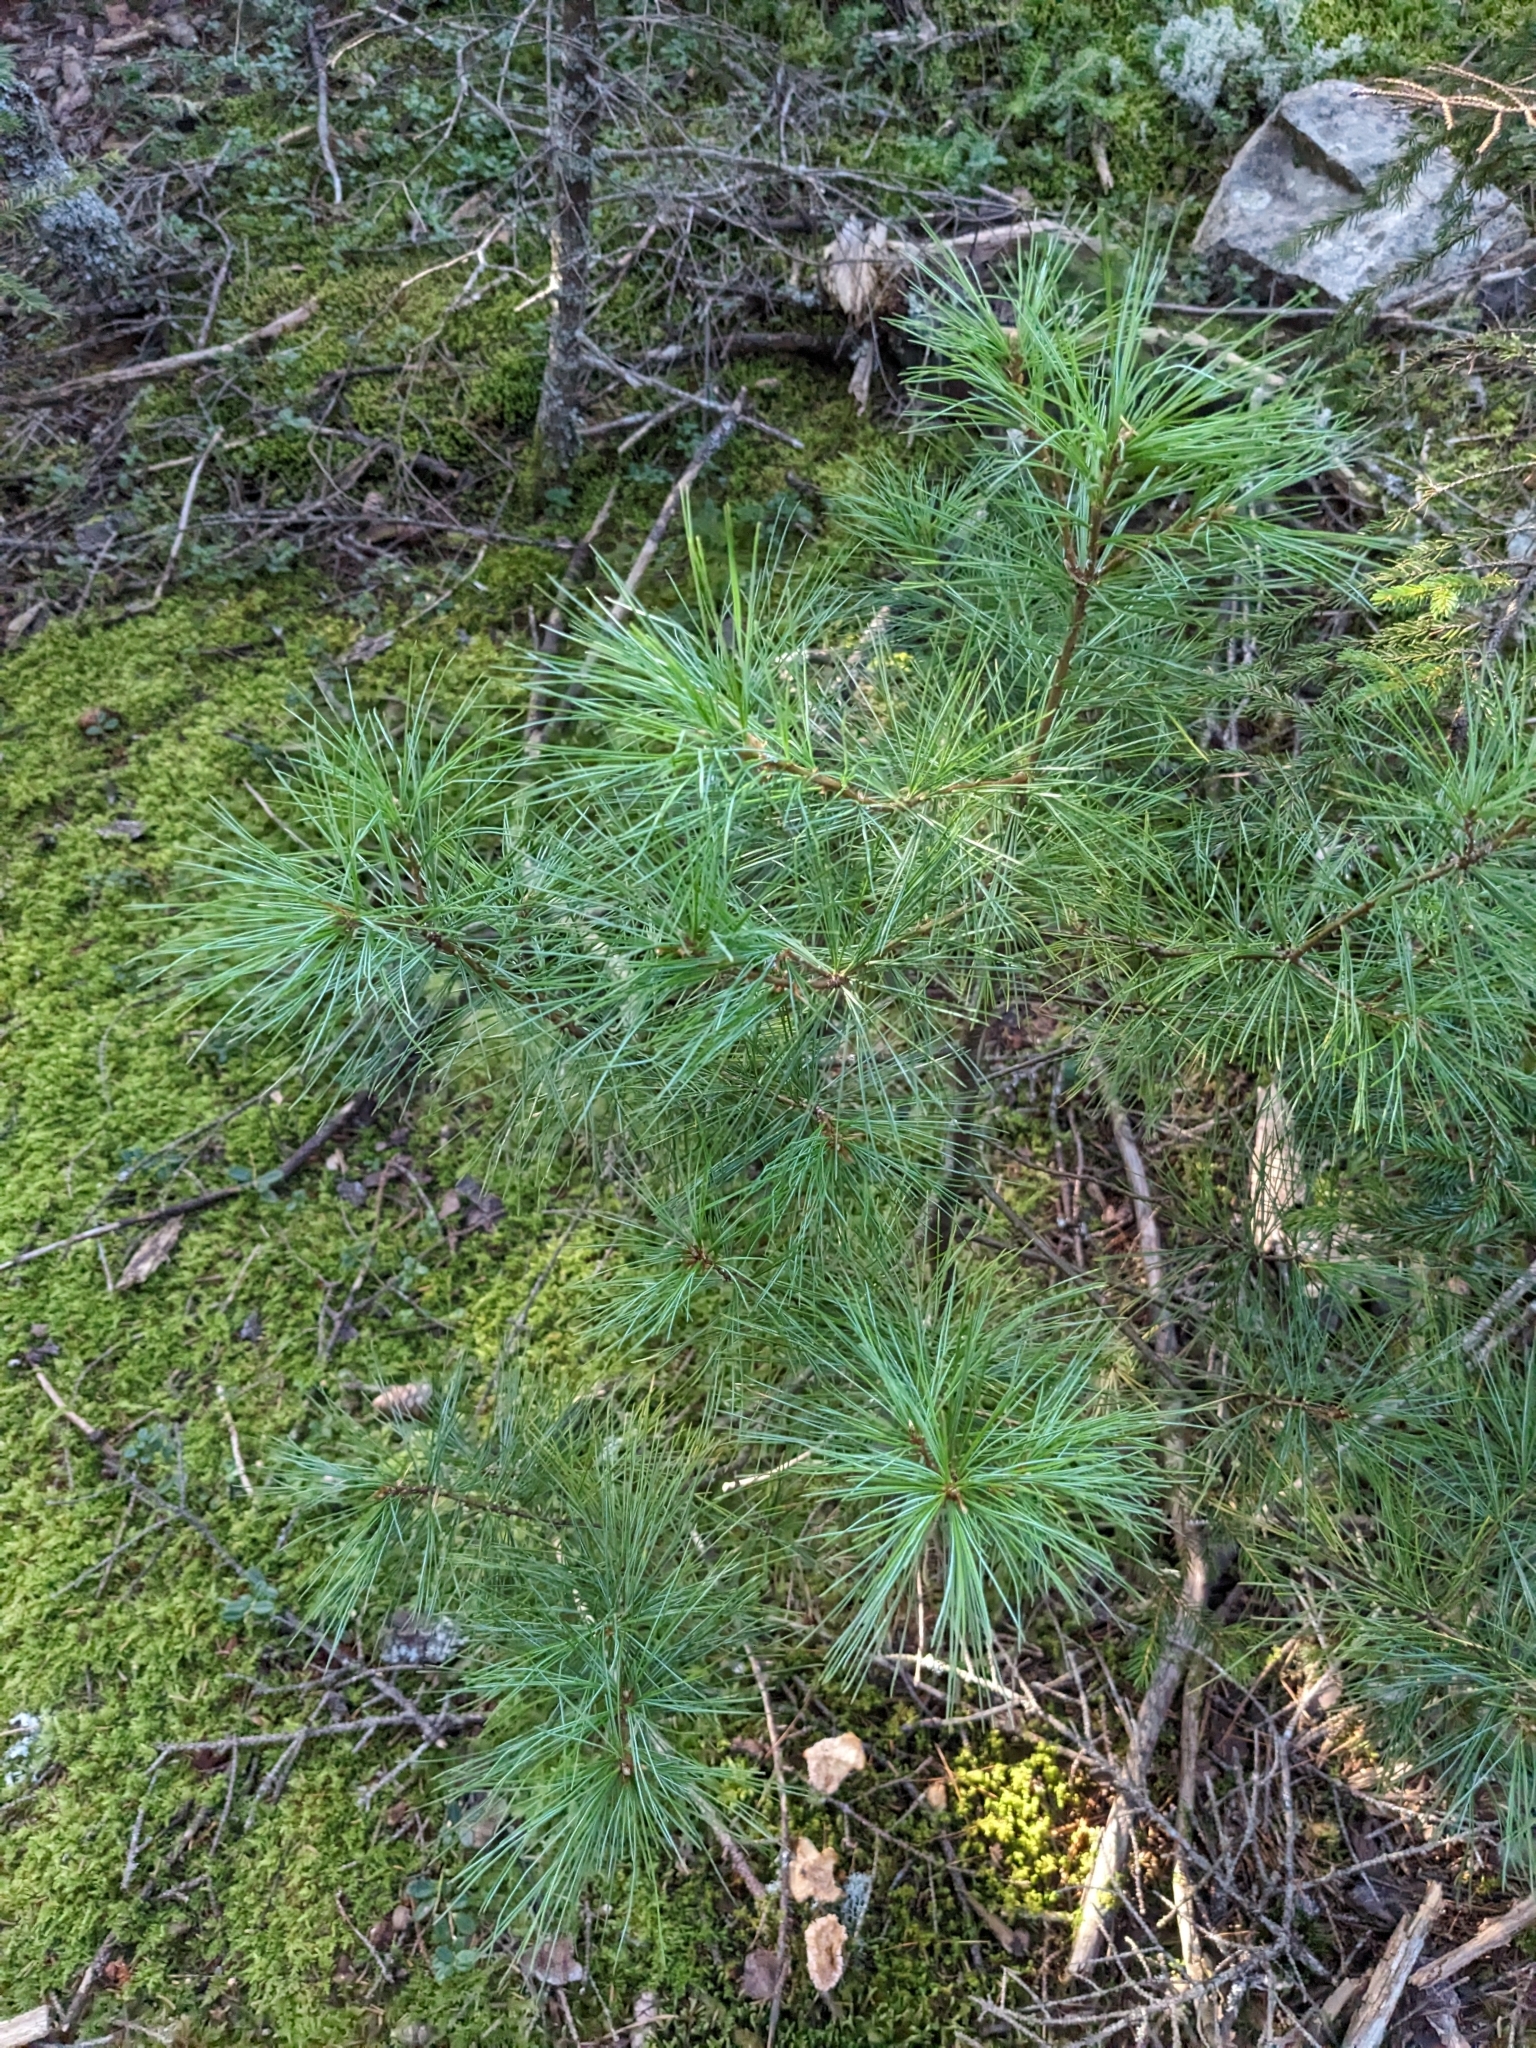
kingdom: Plantae
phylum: Tracheophyta
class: Pinopsida
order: Pinales
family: Pinaceae
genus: Pinus
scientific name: Pinus strobus
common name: Weymouth pine
